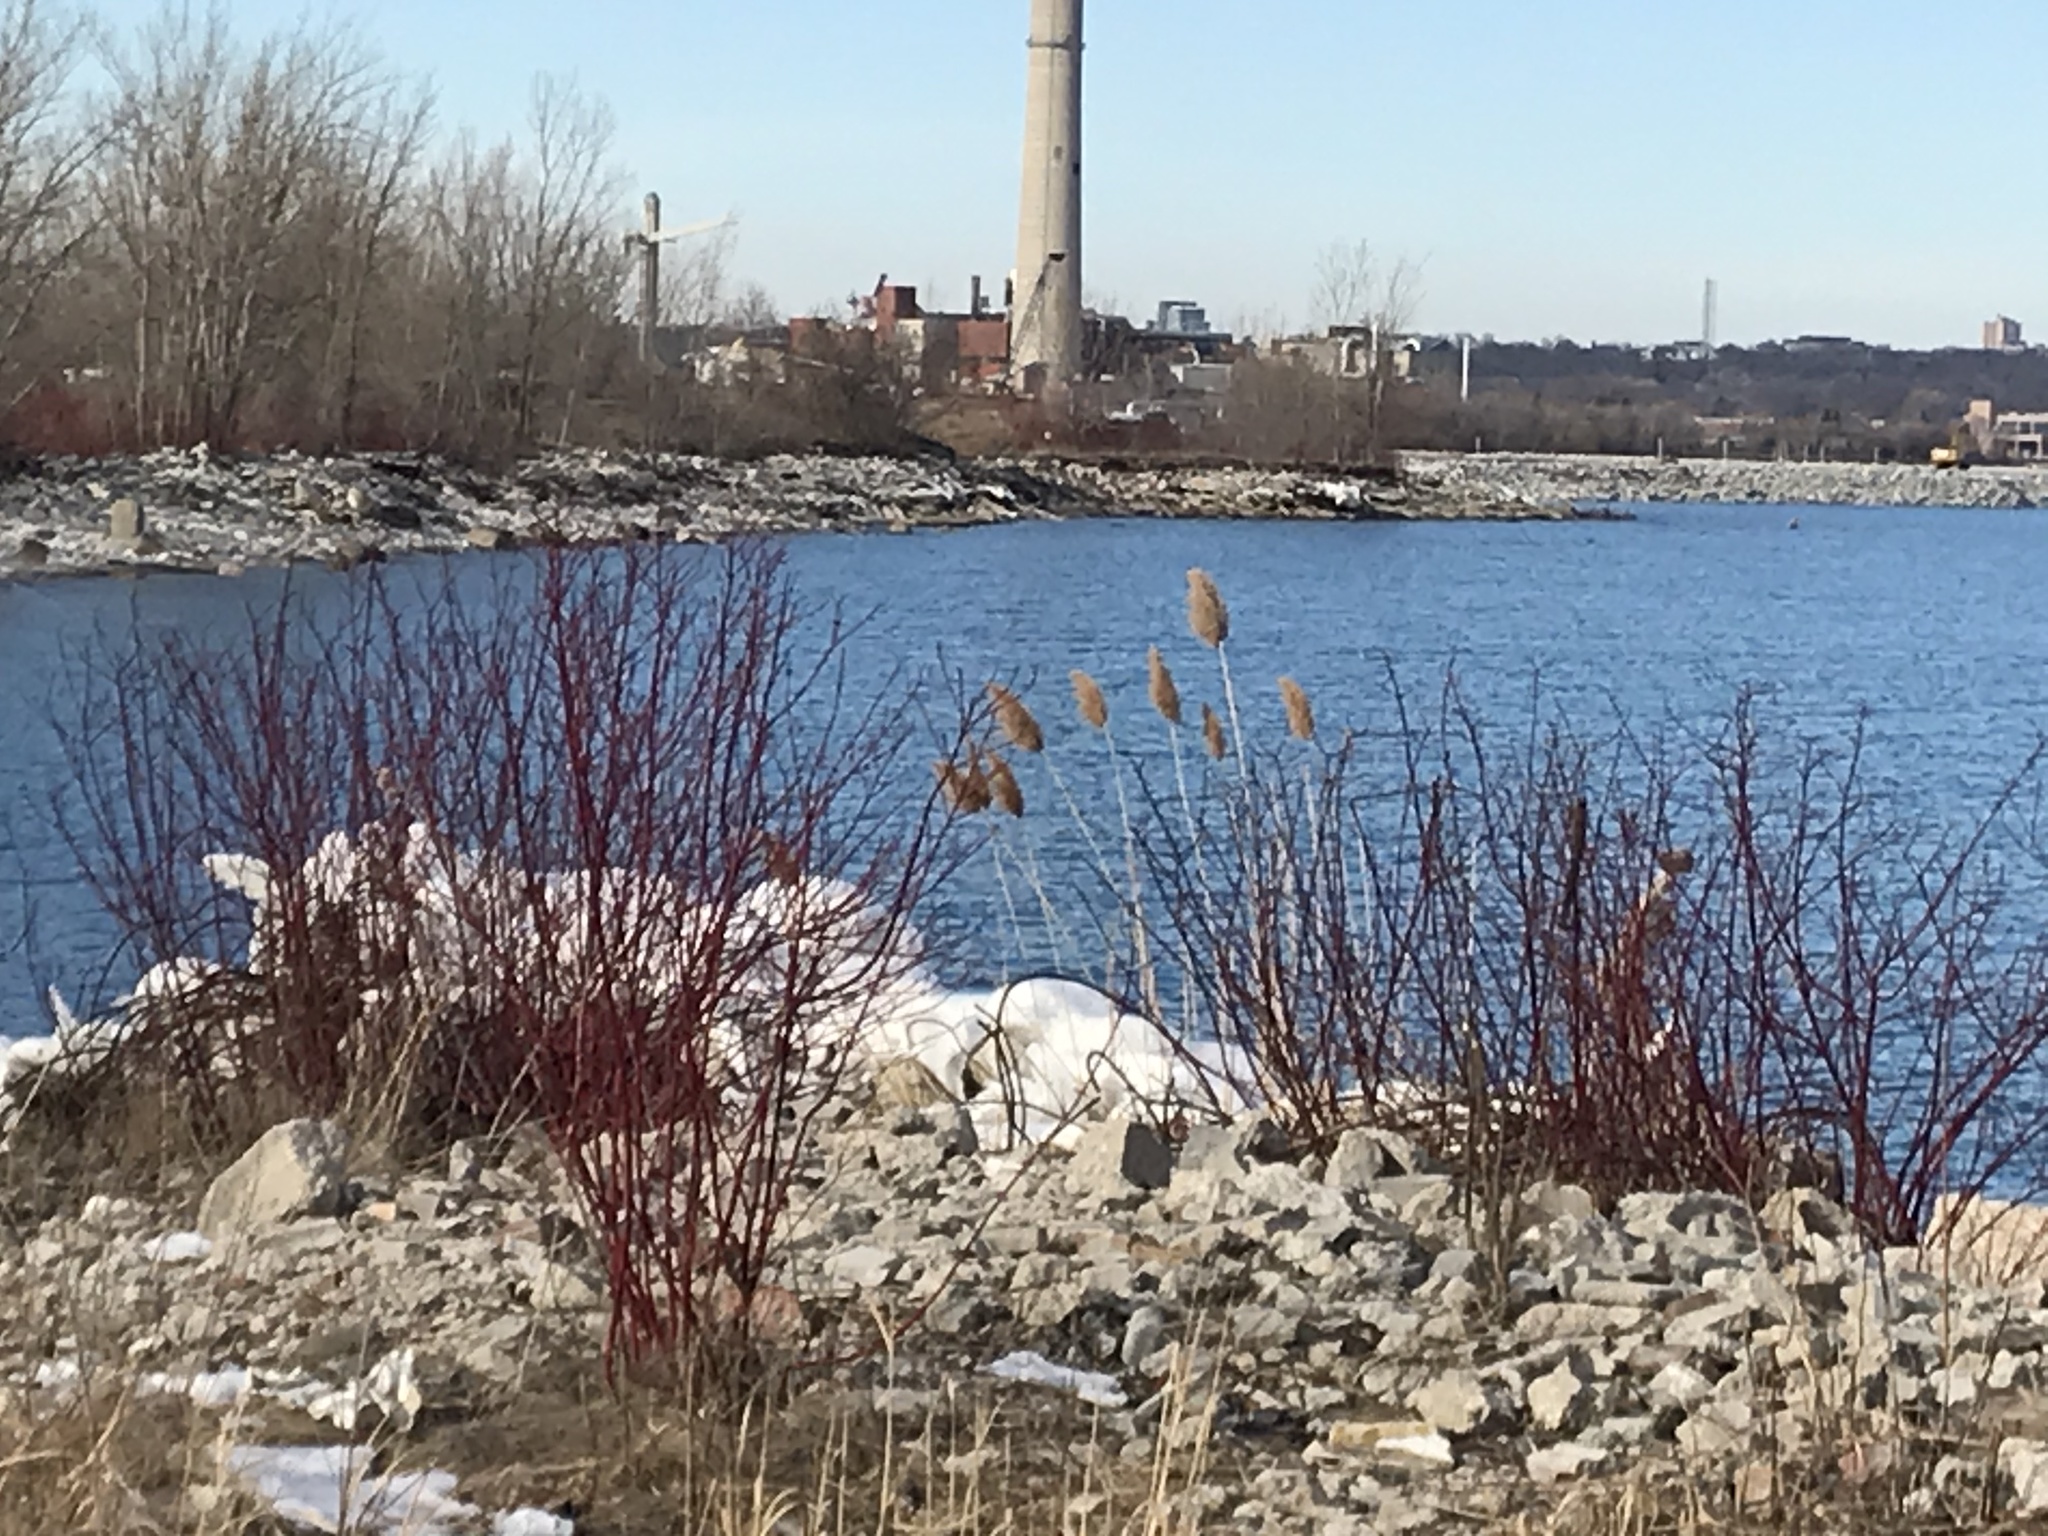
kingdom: Plantae
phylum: Tracheophyta
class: Liliopsida
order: Poales
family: Poaceae
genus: Phragmites
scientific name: Phragmites australis
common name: Common reed
